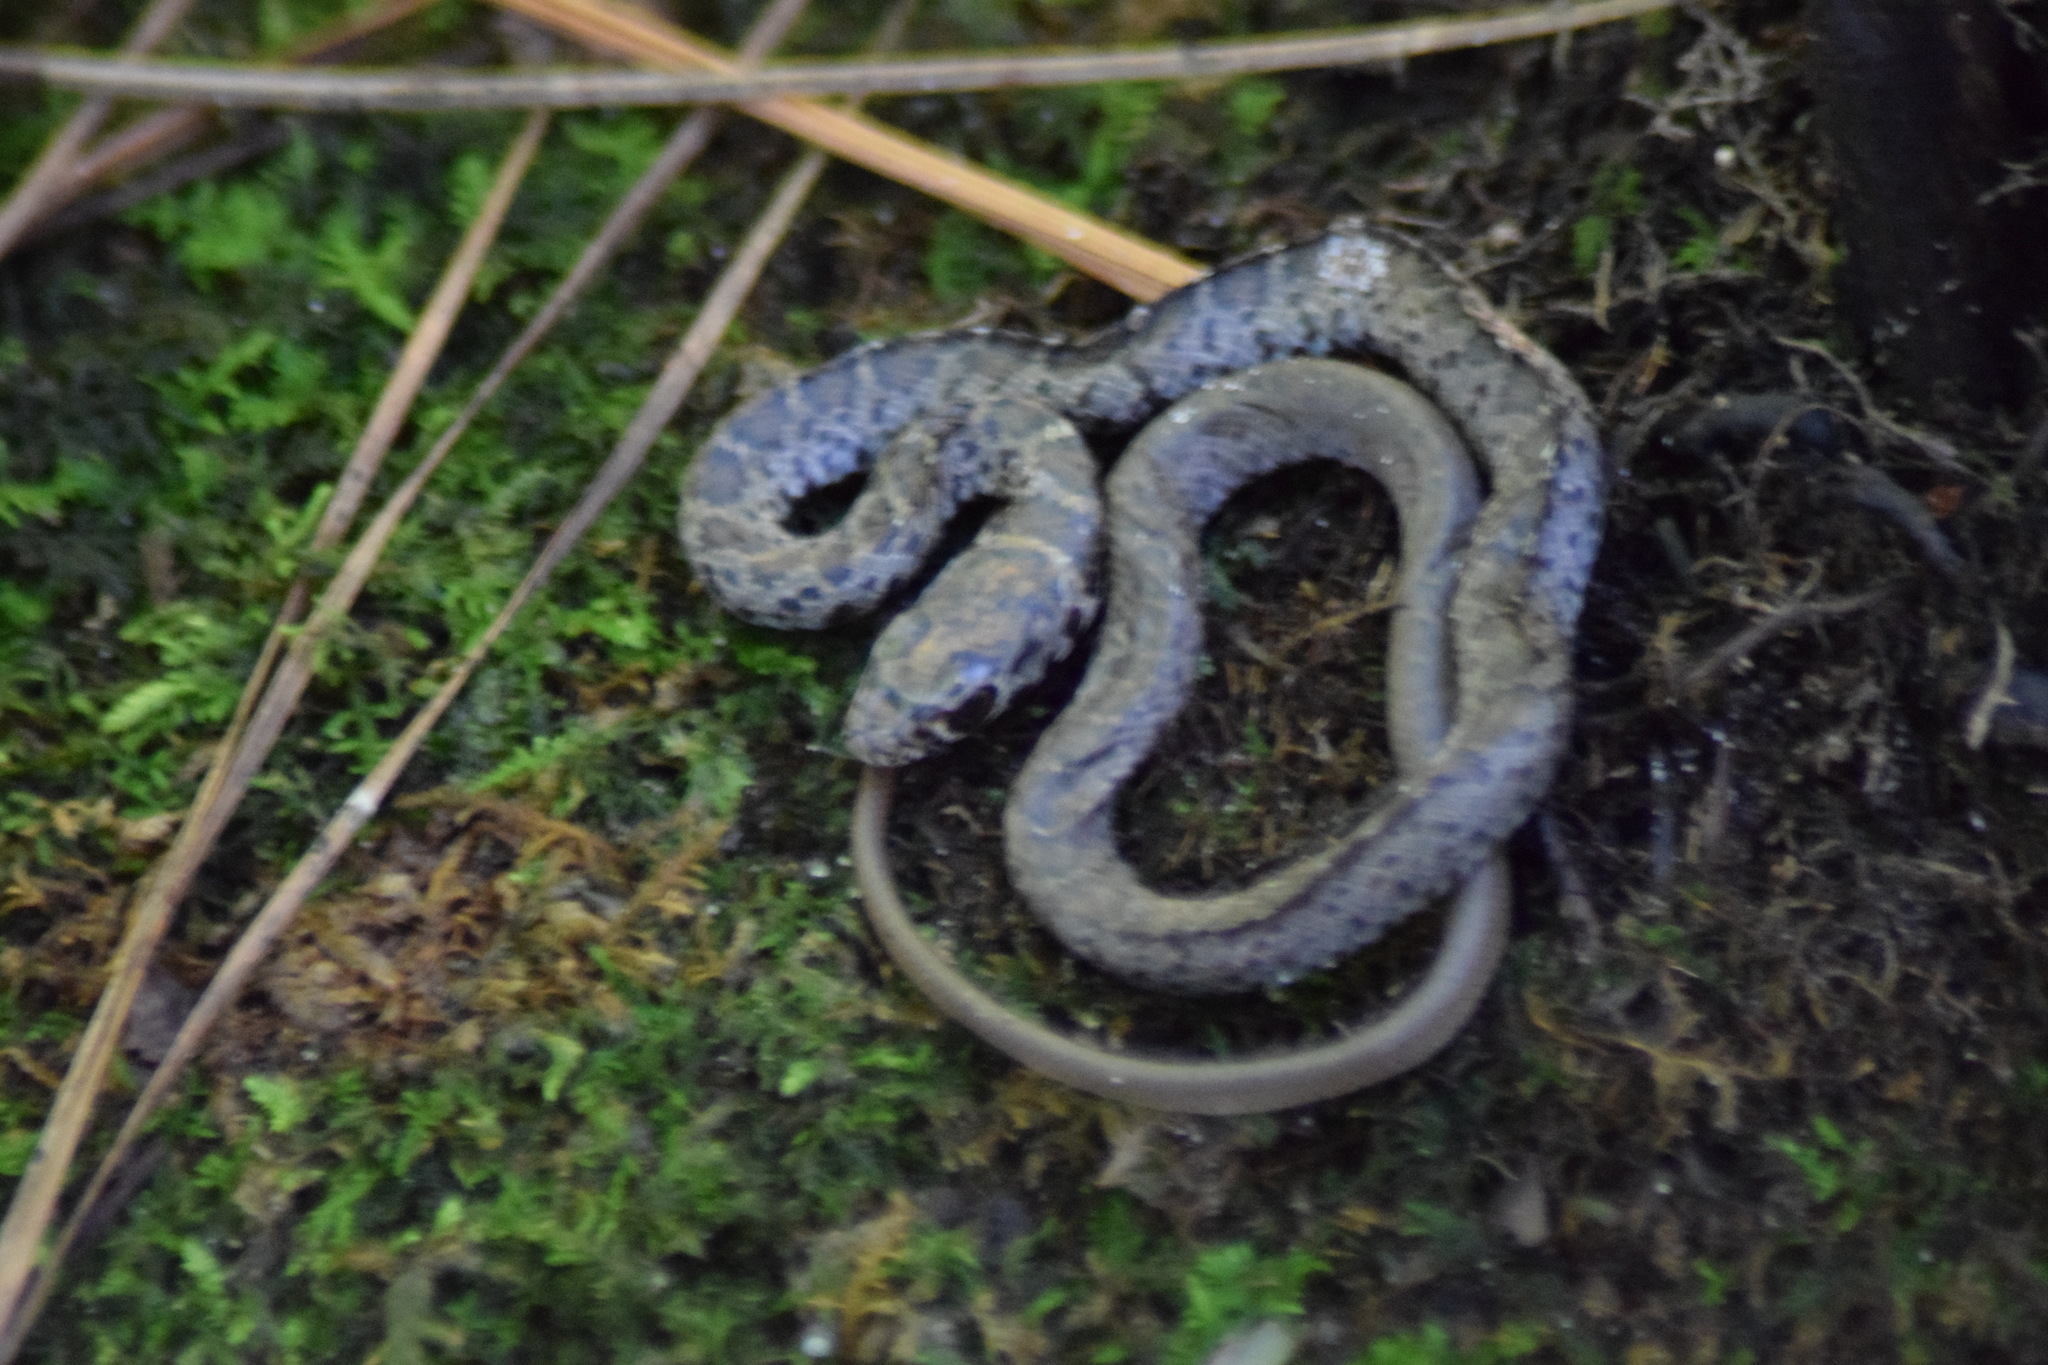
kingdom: Animalia
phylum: Chordata
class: Squamata
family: Colubridae
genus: Coluber
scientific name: Coluber constrictor
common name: Eastern racer
